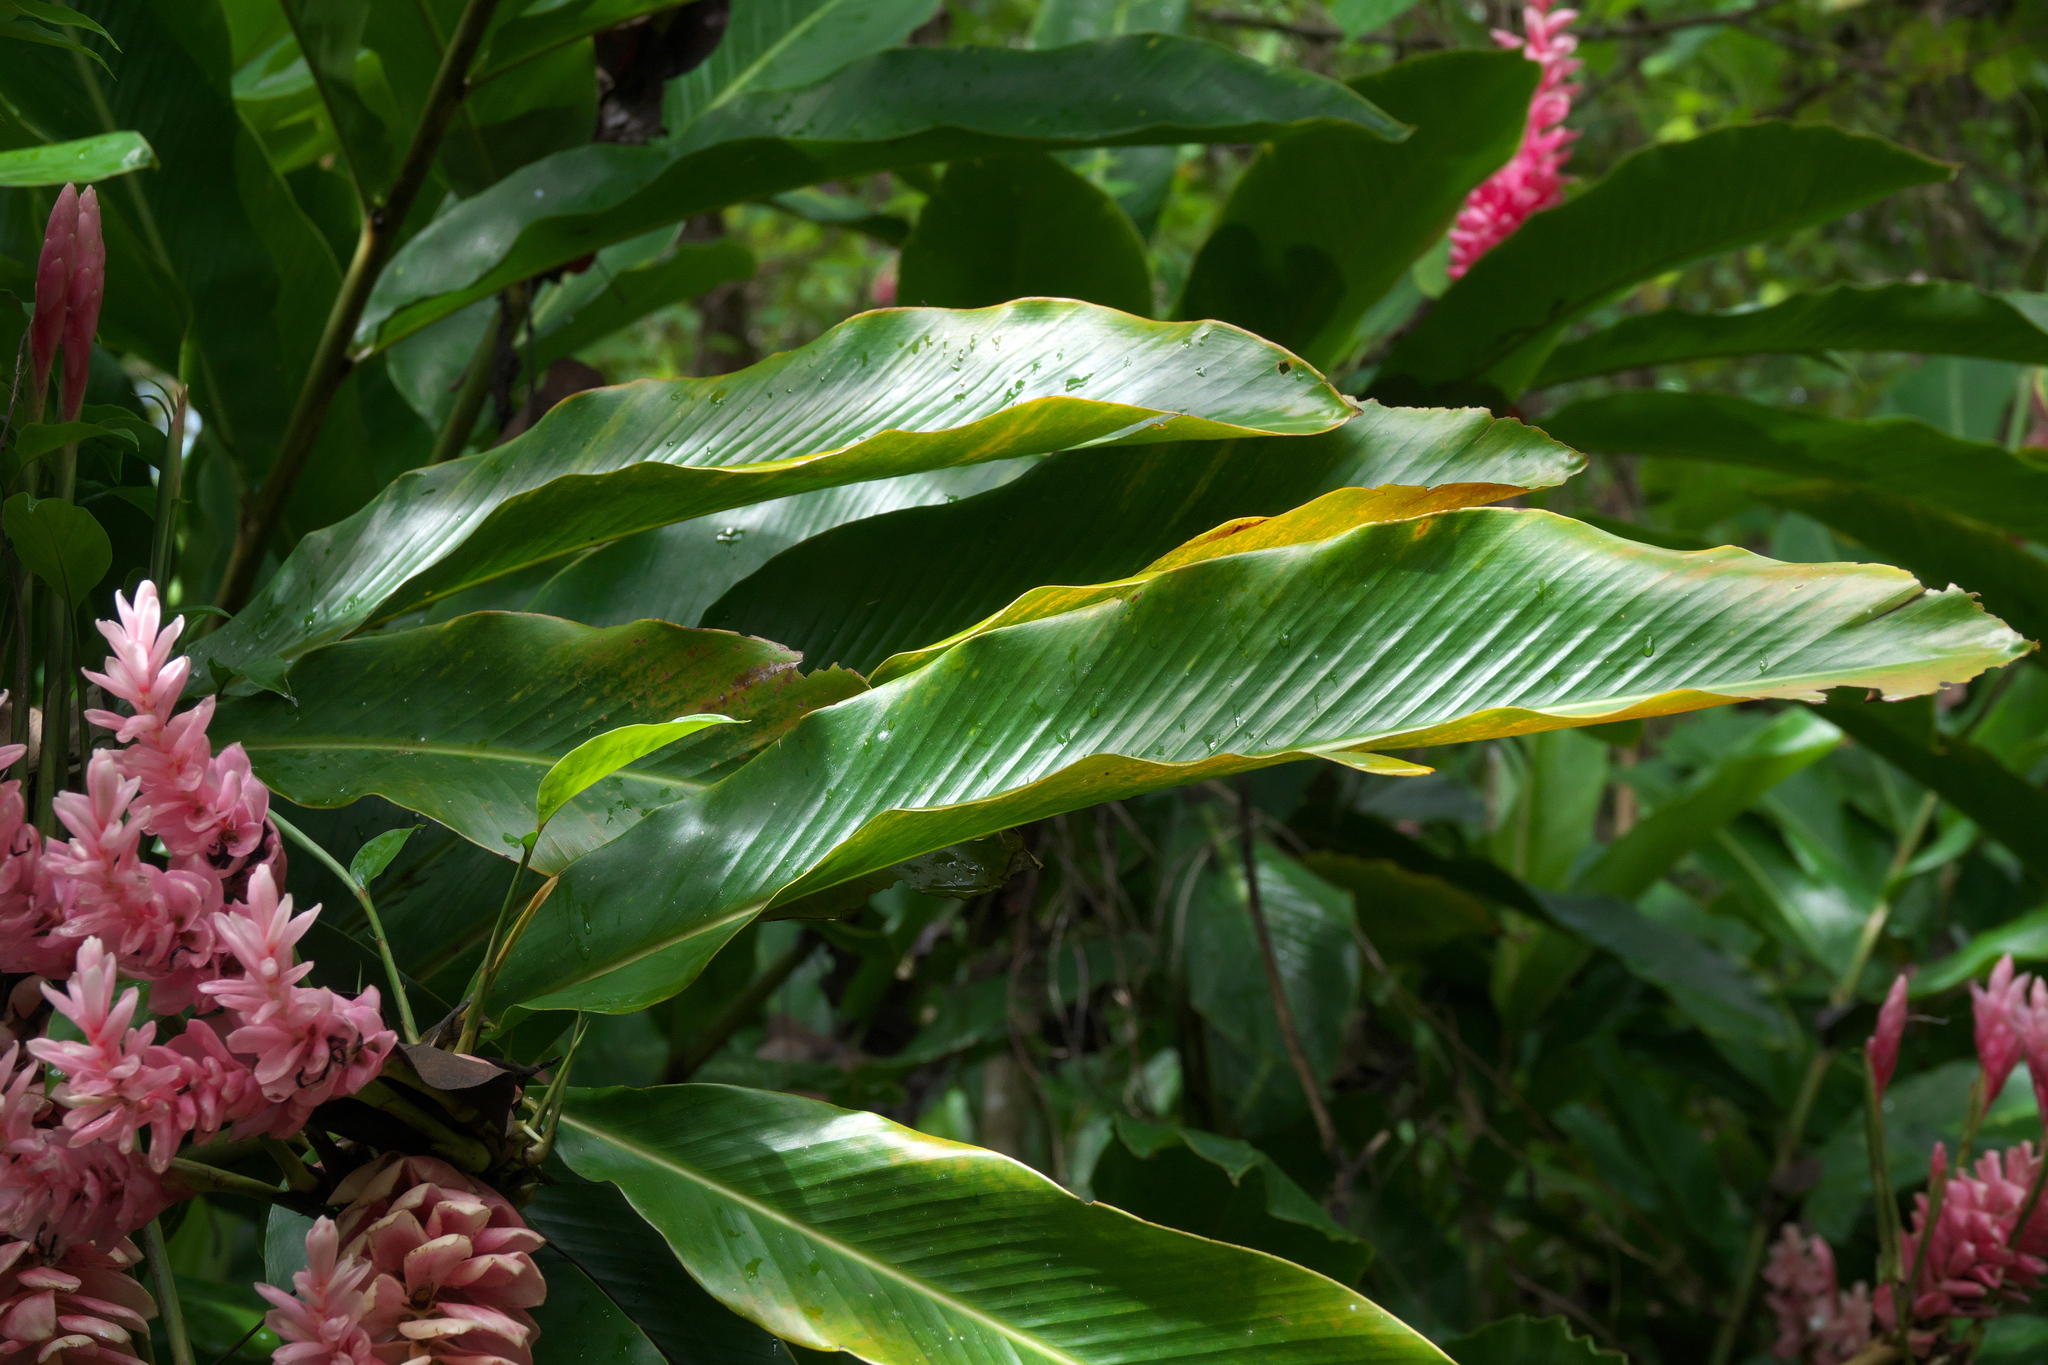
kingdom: Plantae
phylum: Tracheophyta
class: Liliopsida
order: Zingiberales
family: Zingiberaceae
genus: Alpinia
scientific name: Alpinia purpurata
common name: Red ginger
